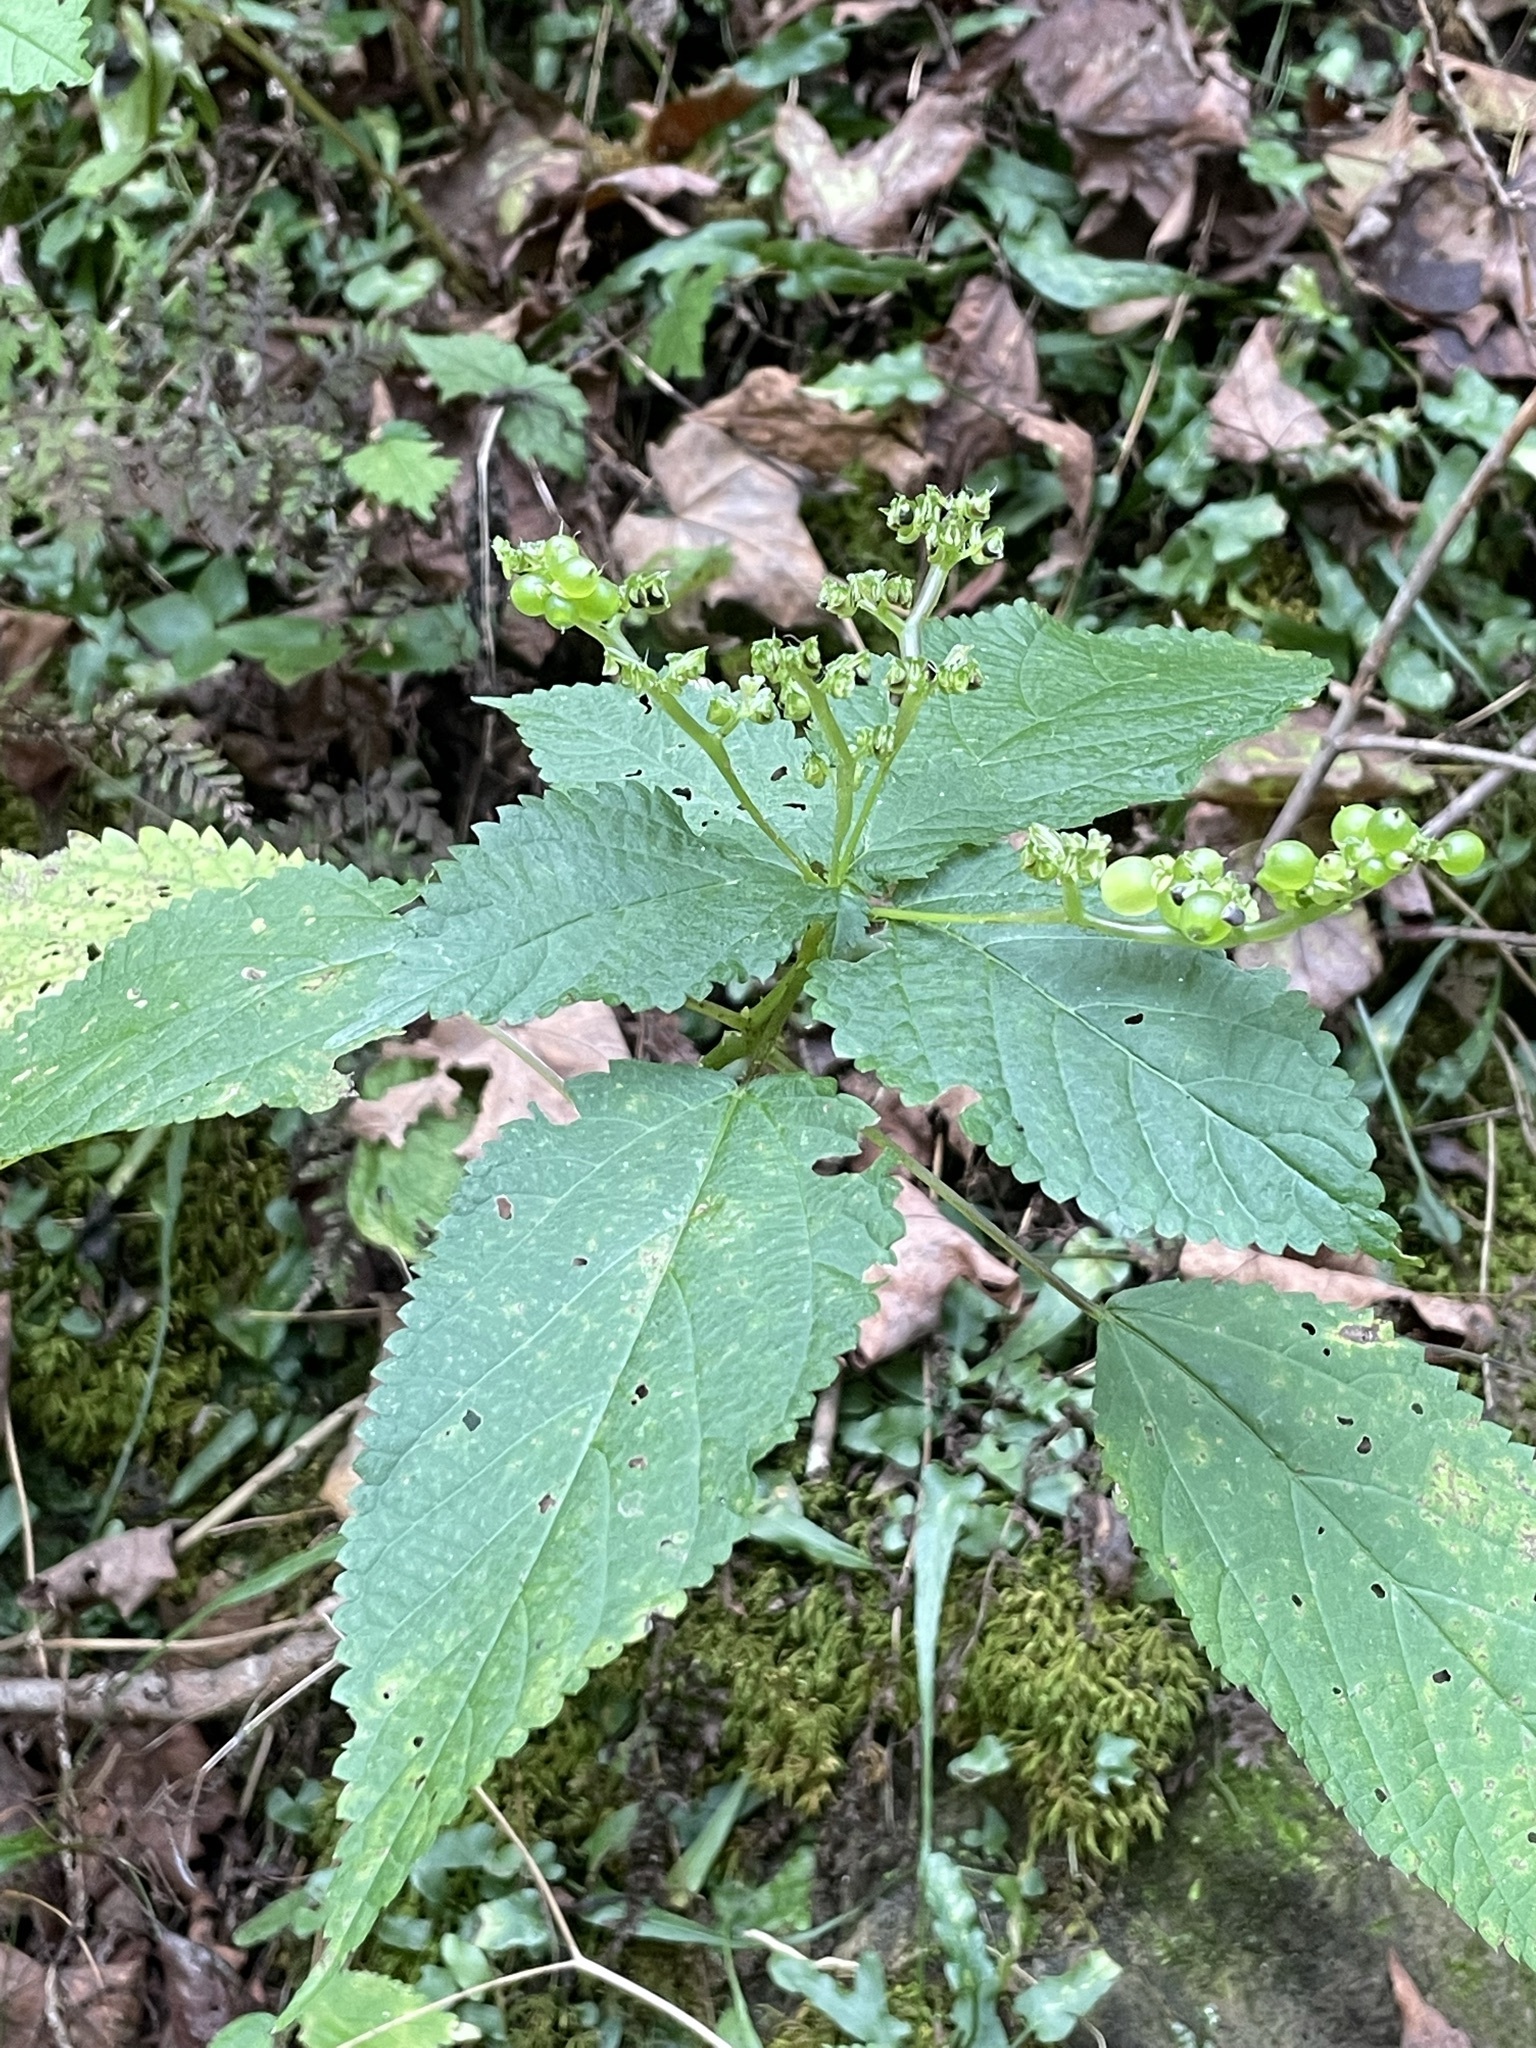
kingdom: Animalia
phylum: Arthropoda
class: Insecta
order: Diptera
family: Cecidomyiidae
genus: Dasineura
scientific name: Dasineura investita
